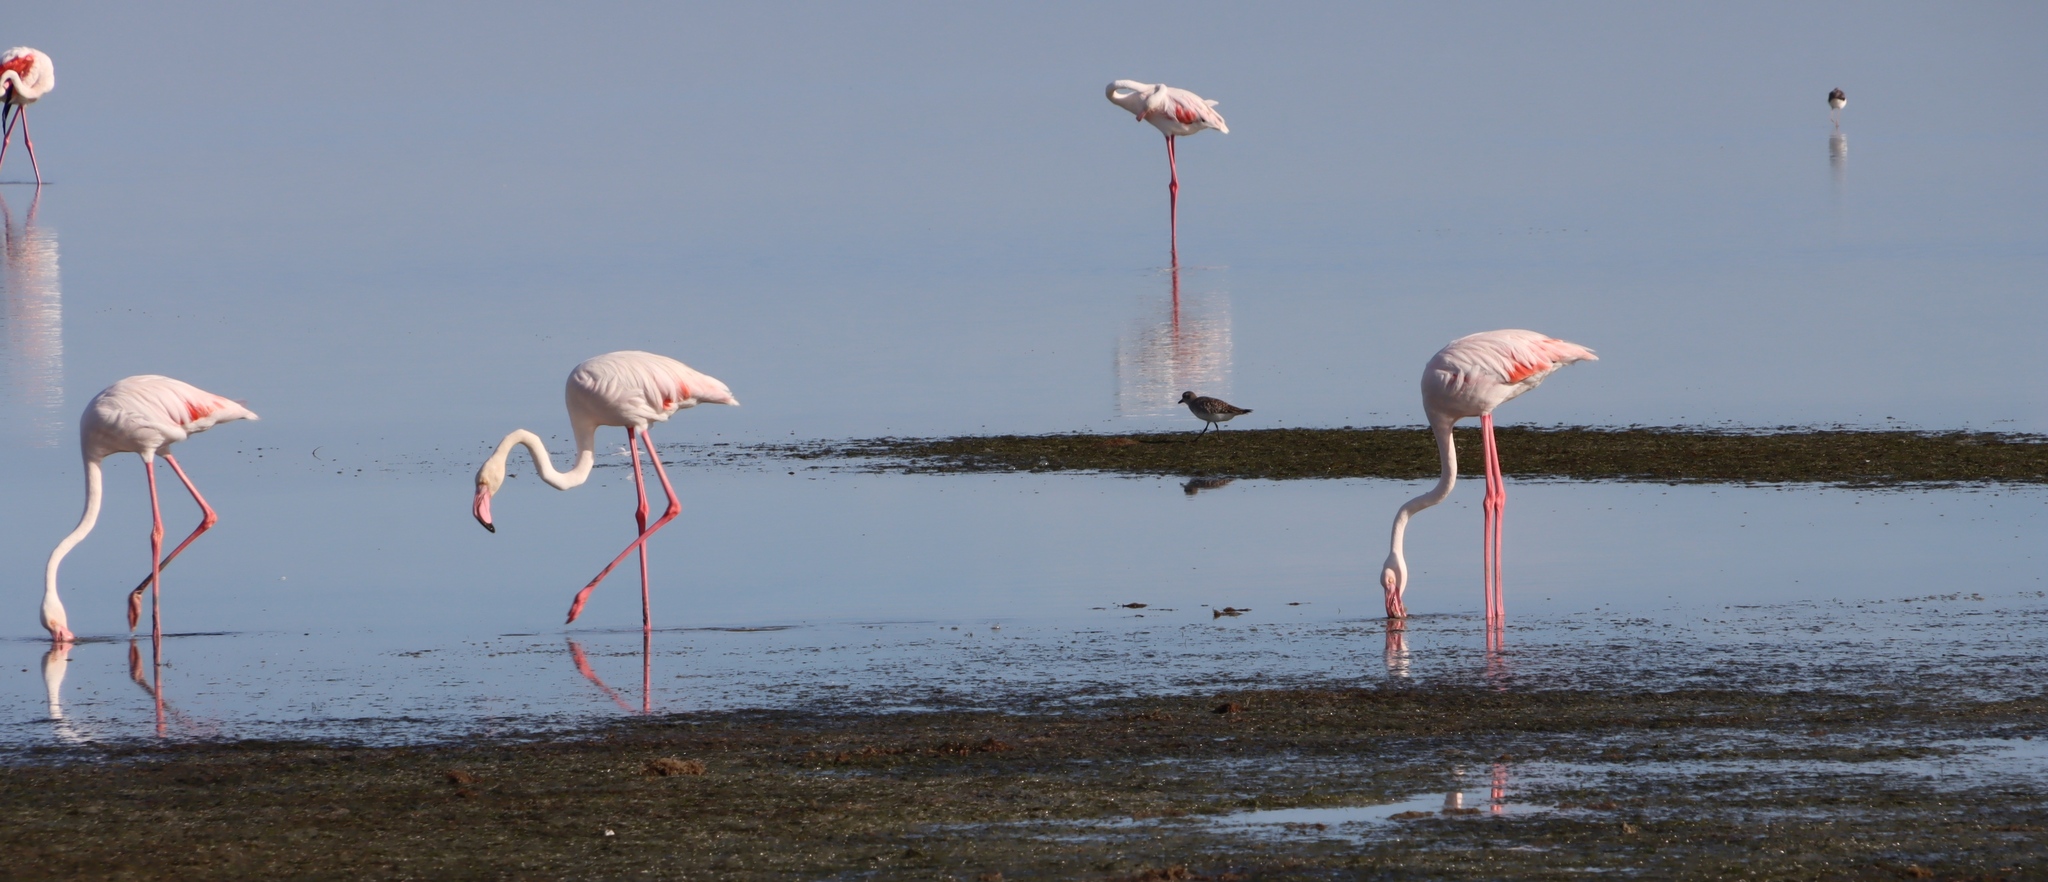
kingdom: Animalia
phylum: Chordata
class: Aves
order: Phoenicopteriformes
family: Phoenicopteridae
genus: Phoenicopterus
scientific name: Phoenicopterus roseus
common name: Greater flamingo
